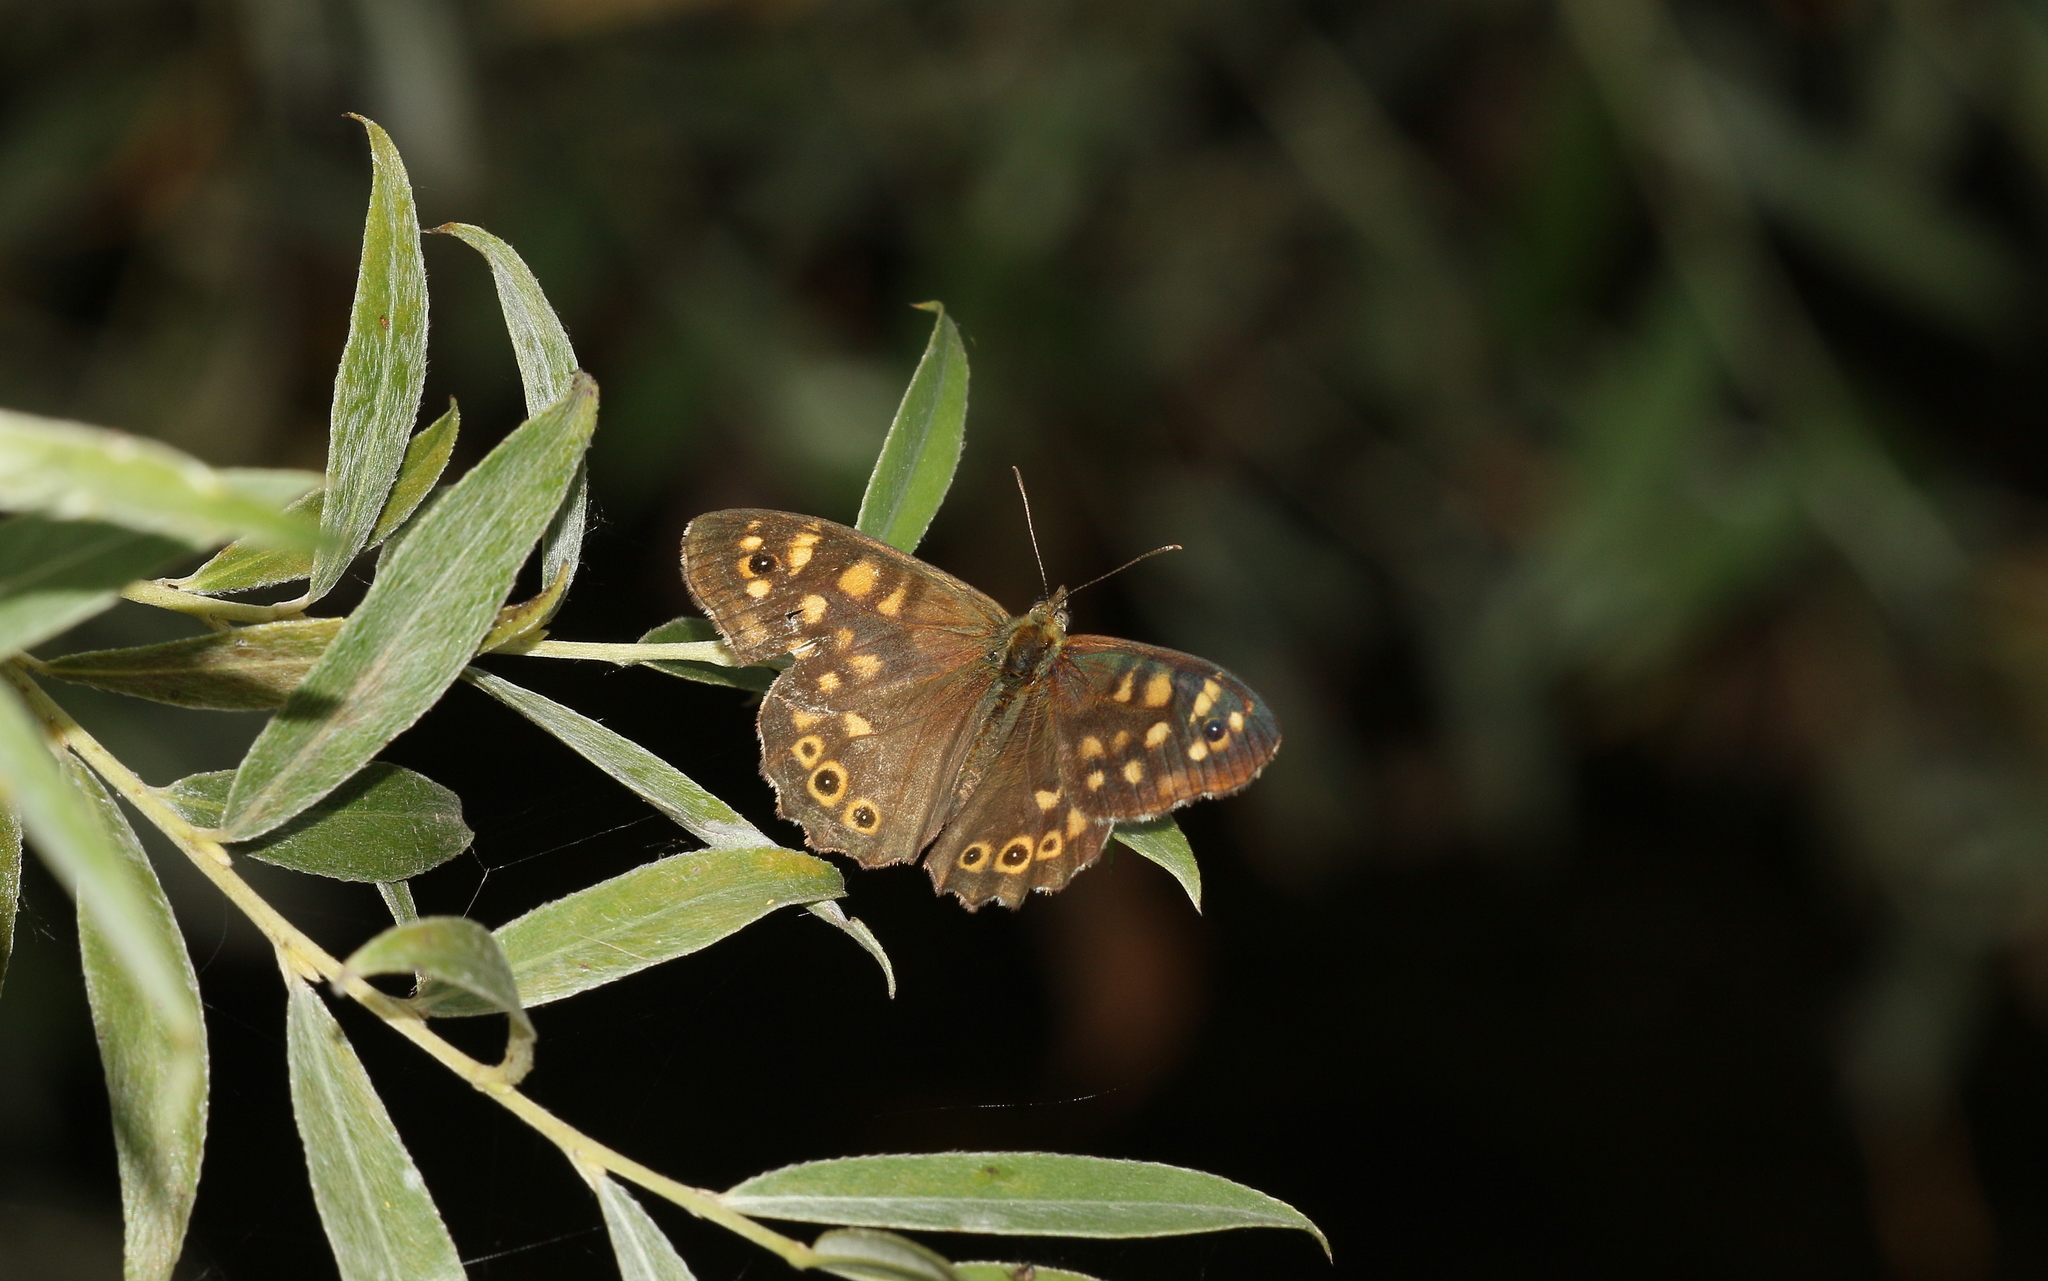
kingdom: Animalia
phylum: Arthropoda
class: Insecta
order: Lepidoptera
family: Nymphalidae
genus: Pararge
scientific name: Pararge aegeria
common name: Speckled wood
